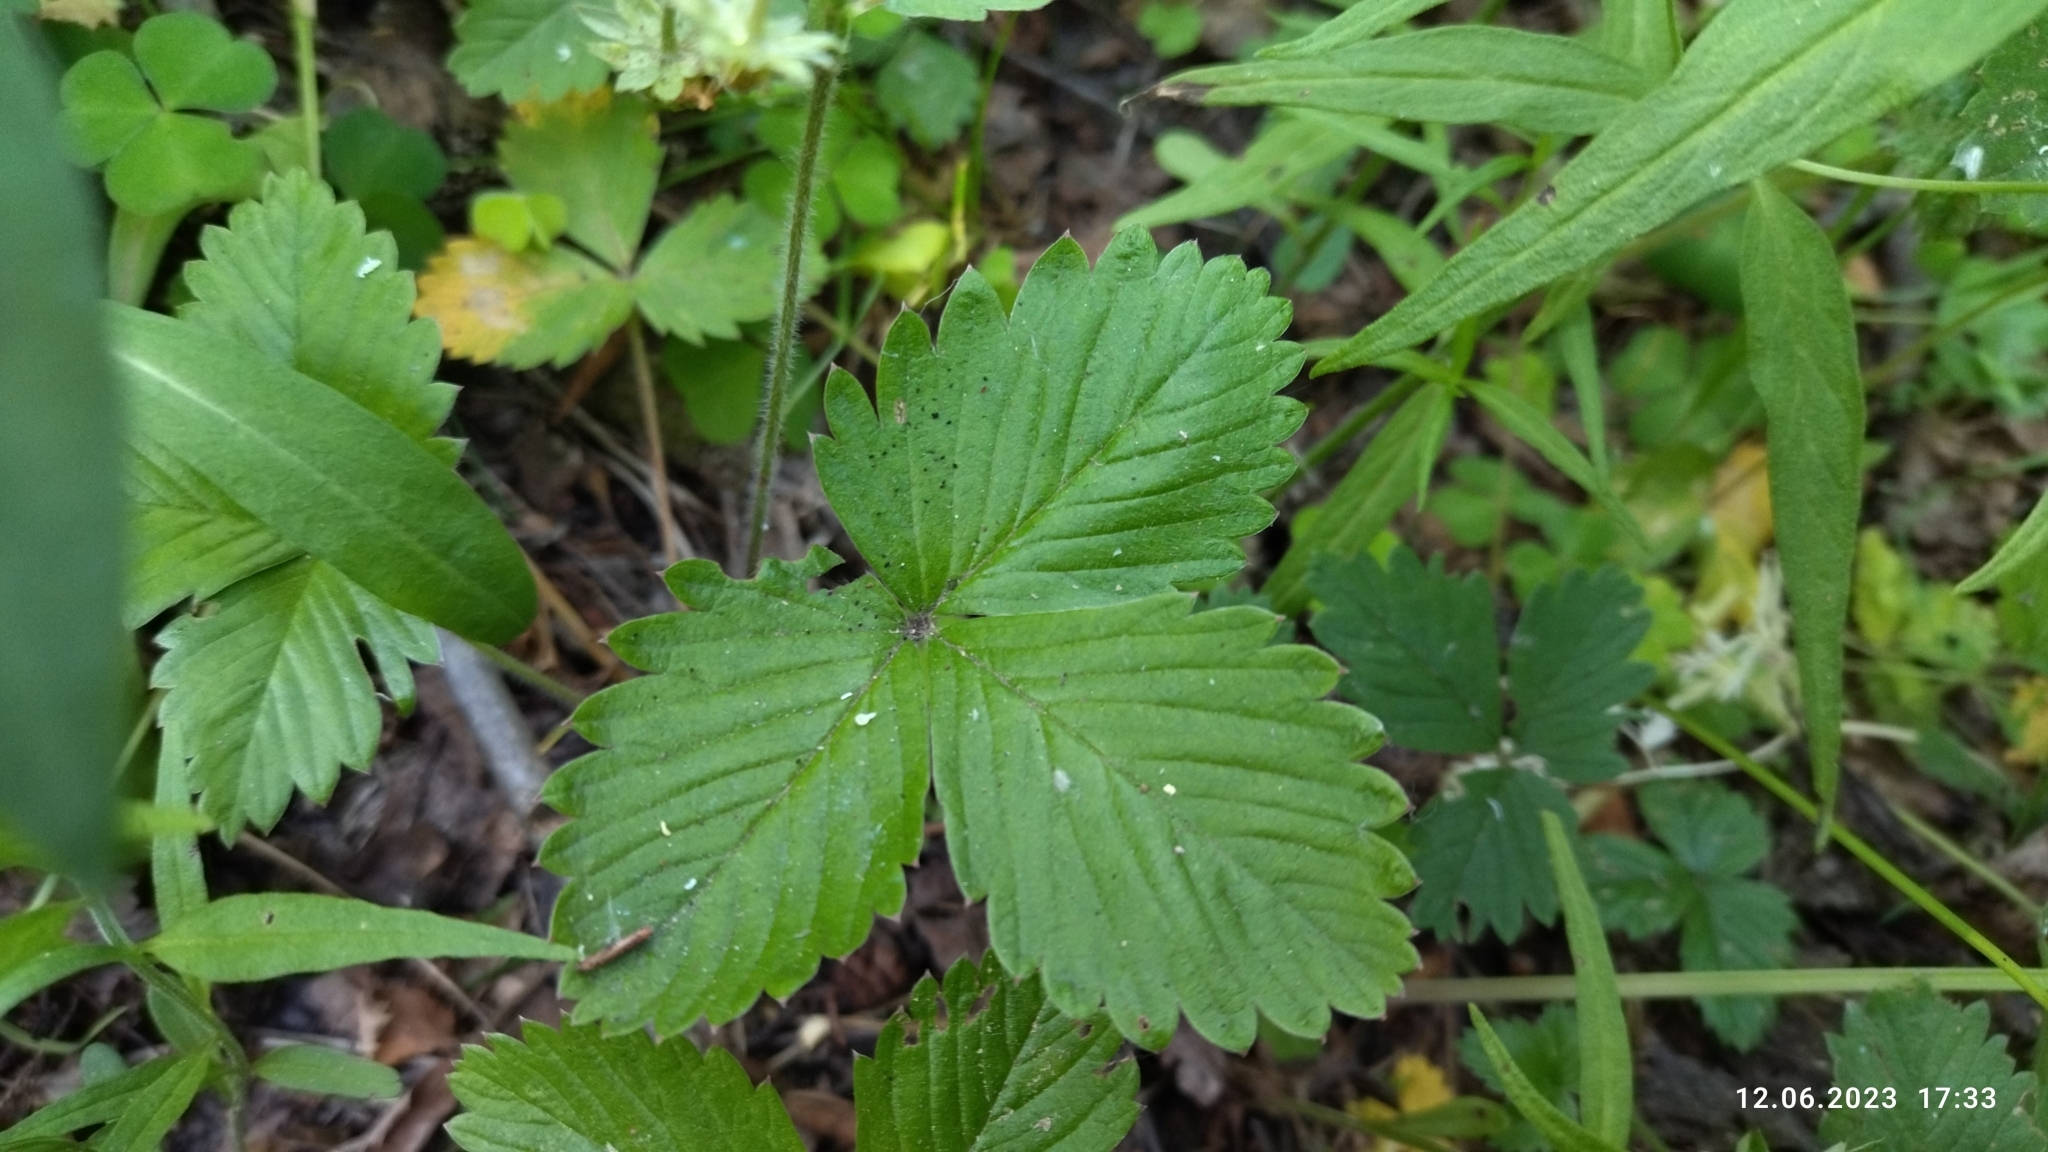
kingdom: Plantae
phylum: Tracheophyta
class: Magnoliopsida
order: Rosales
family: Rosaceae
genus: Fragaria
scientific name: Fragaria vesca
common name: Wild strawberry
